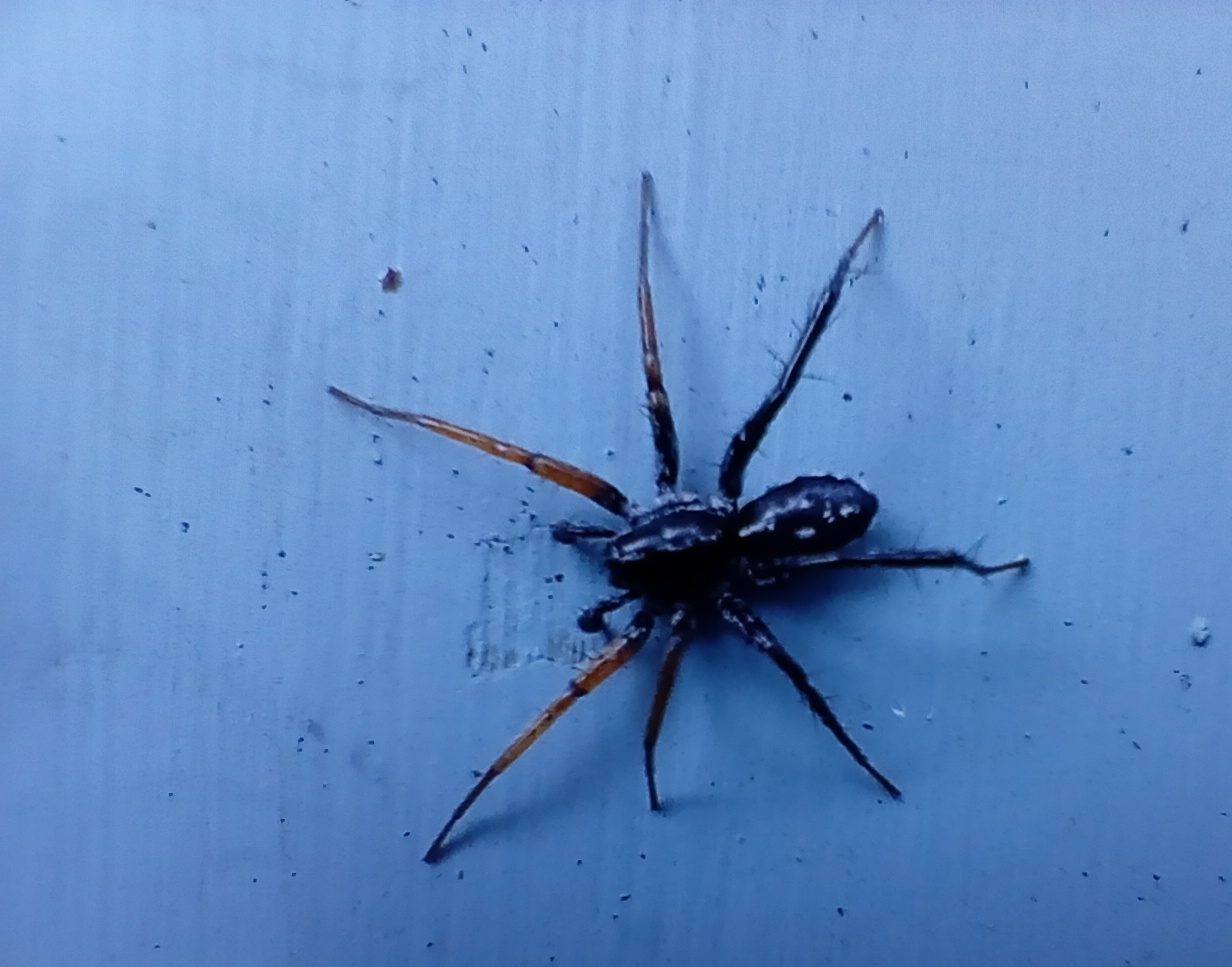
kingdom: Animalia
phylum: Arthropoda
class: Arachnida
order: Araneae
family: Corinnidae
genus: Nyssus
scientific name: Nyssus coloripes
